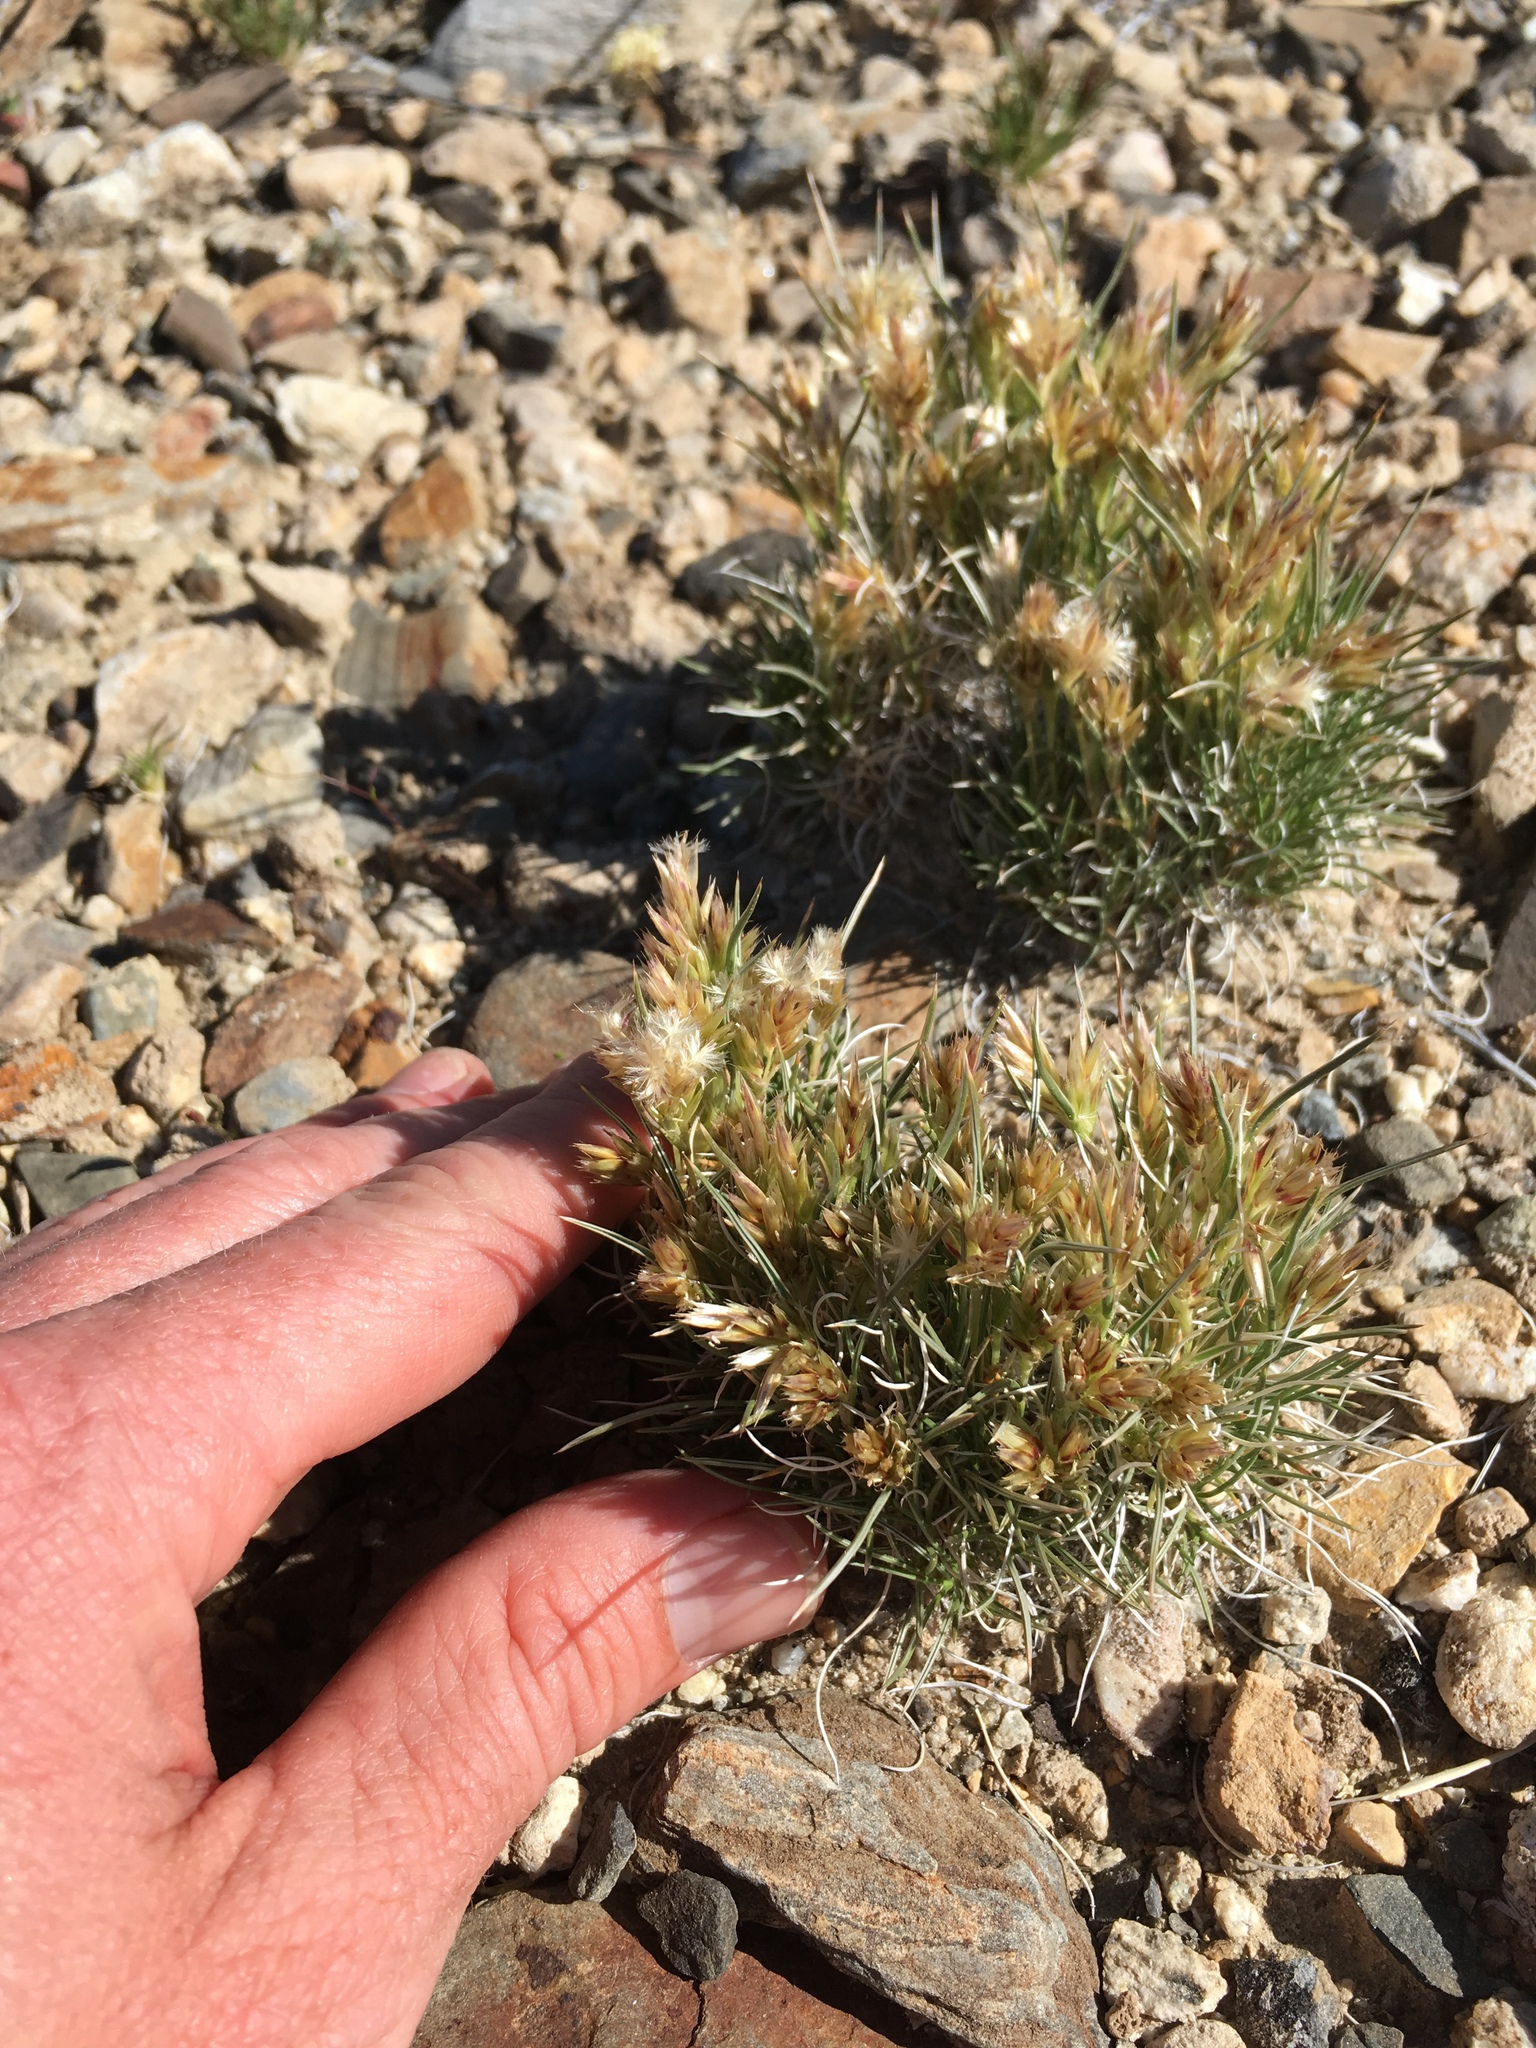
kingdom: Plantae
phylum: Tracheophyta
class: Liliopsida
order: Poales
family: Poaceae
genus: Blepharidachne
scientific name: Blepharidachne kingii
